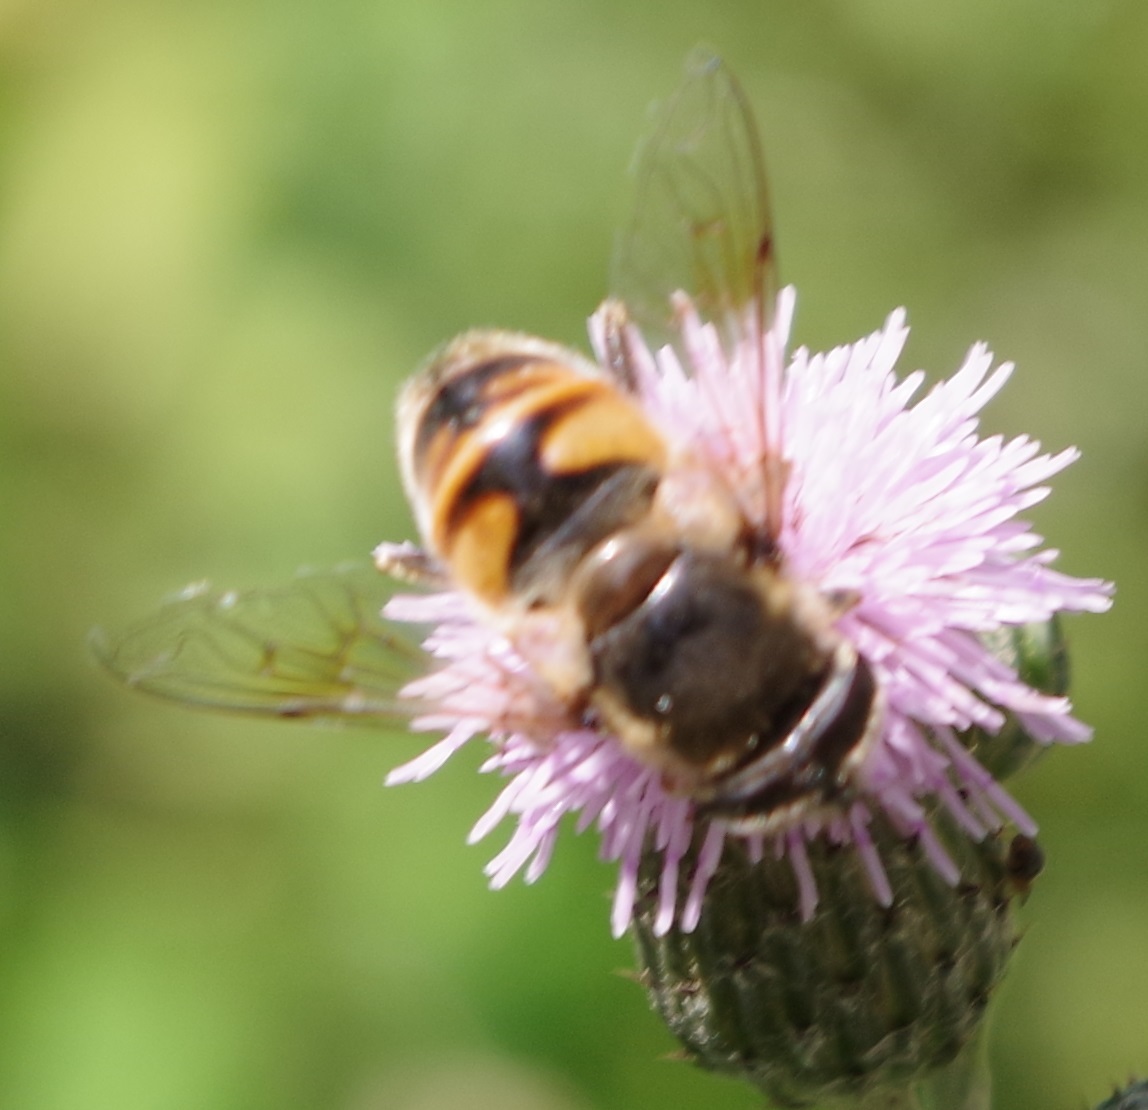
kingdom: Animalia
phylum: Arthropoda
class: Insecta
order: Diptera
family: Syrphidae
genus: Eristalis
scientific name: Eristalis tenax
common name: Drone fly
